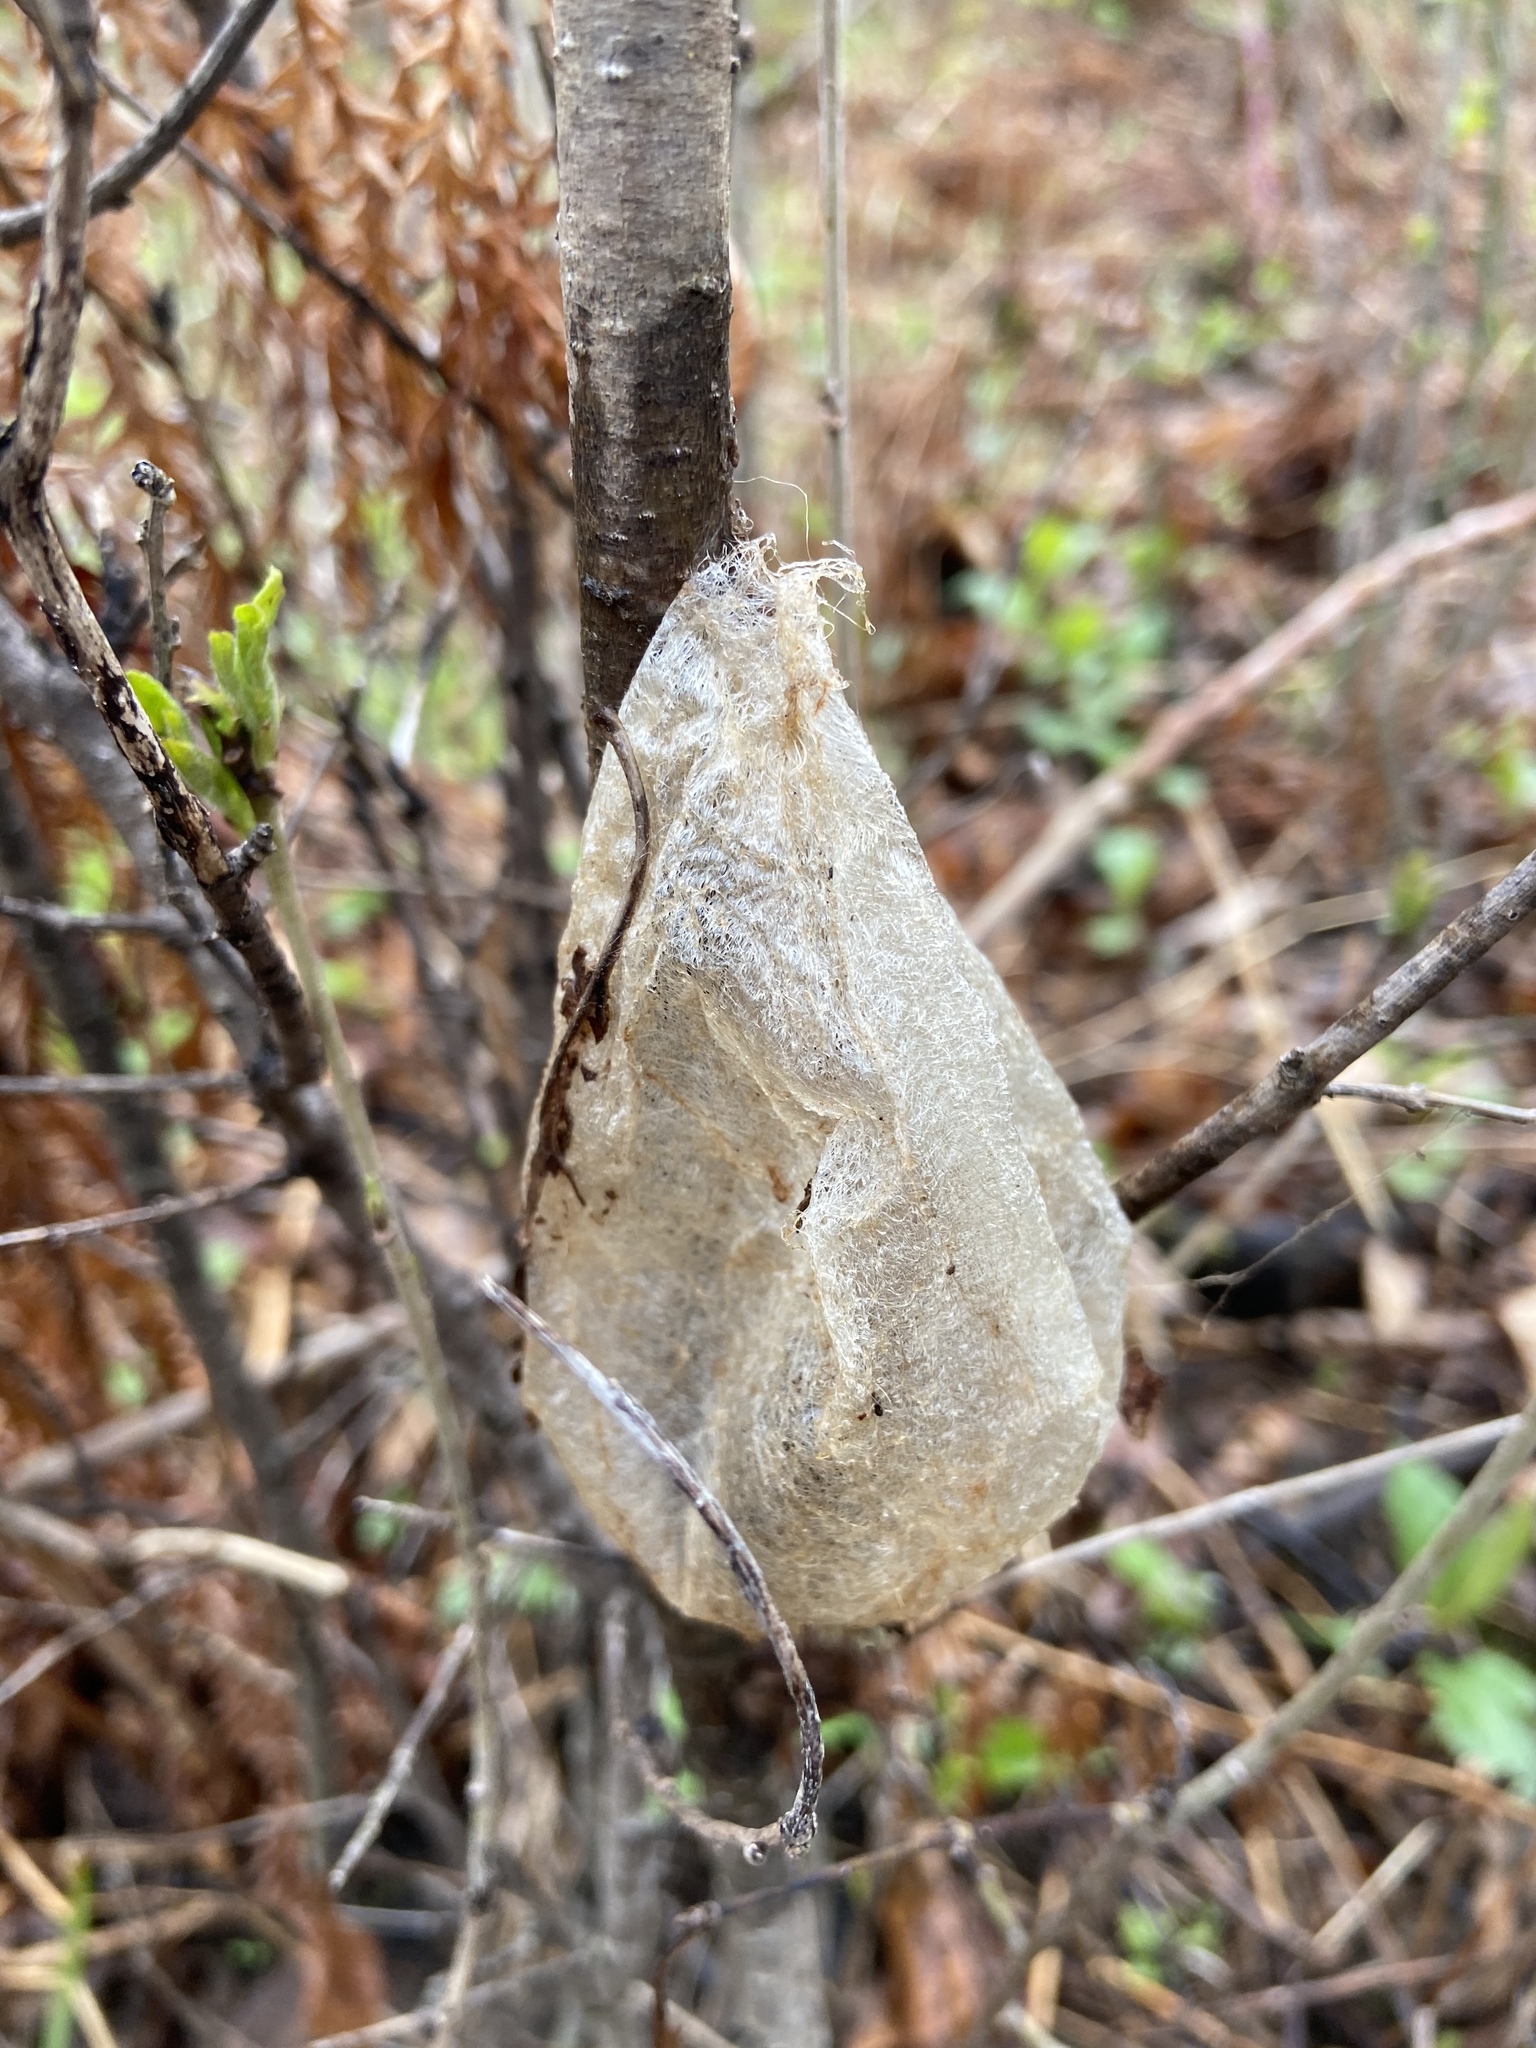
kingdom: Animalia
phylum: Arthropoda
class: Insecta
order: Lepidoptera
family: Saturniidae
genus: Hyalophora
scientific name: Hyalophora cecropia
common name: Cecropia silkmoth
